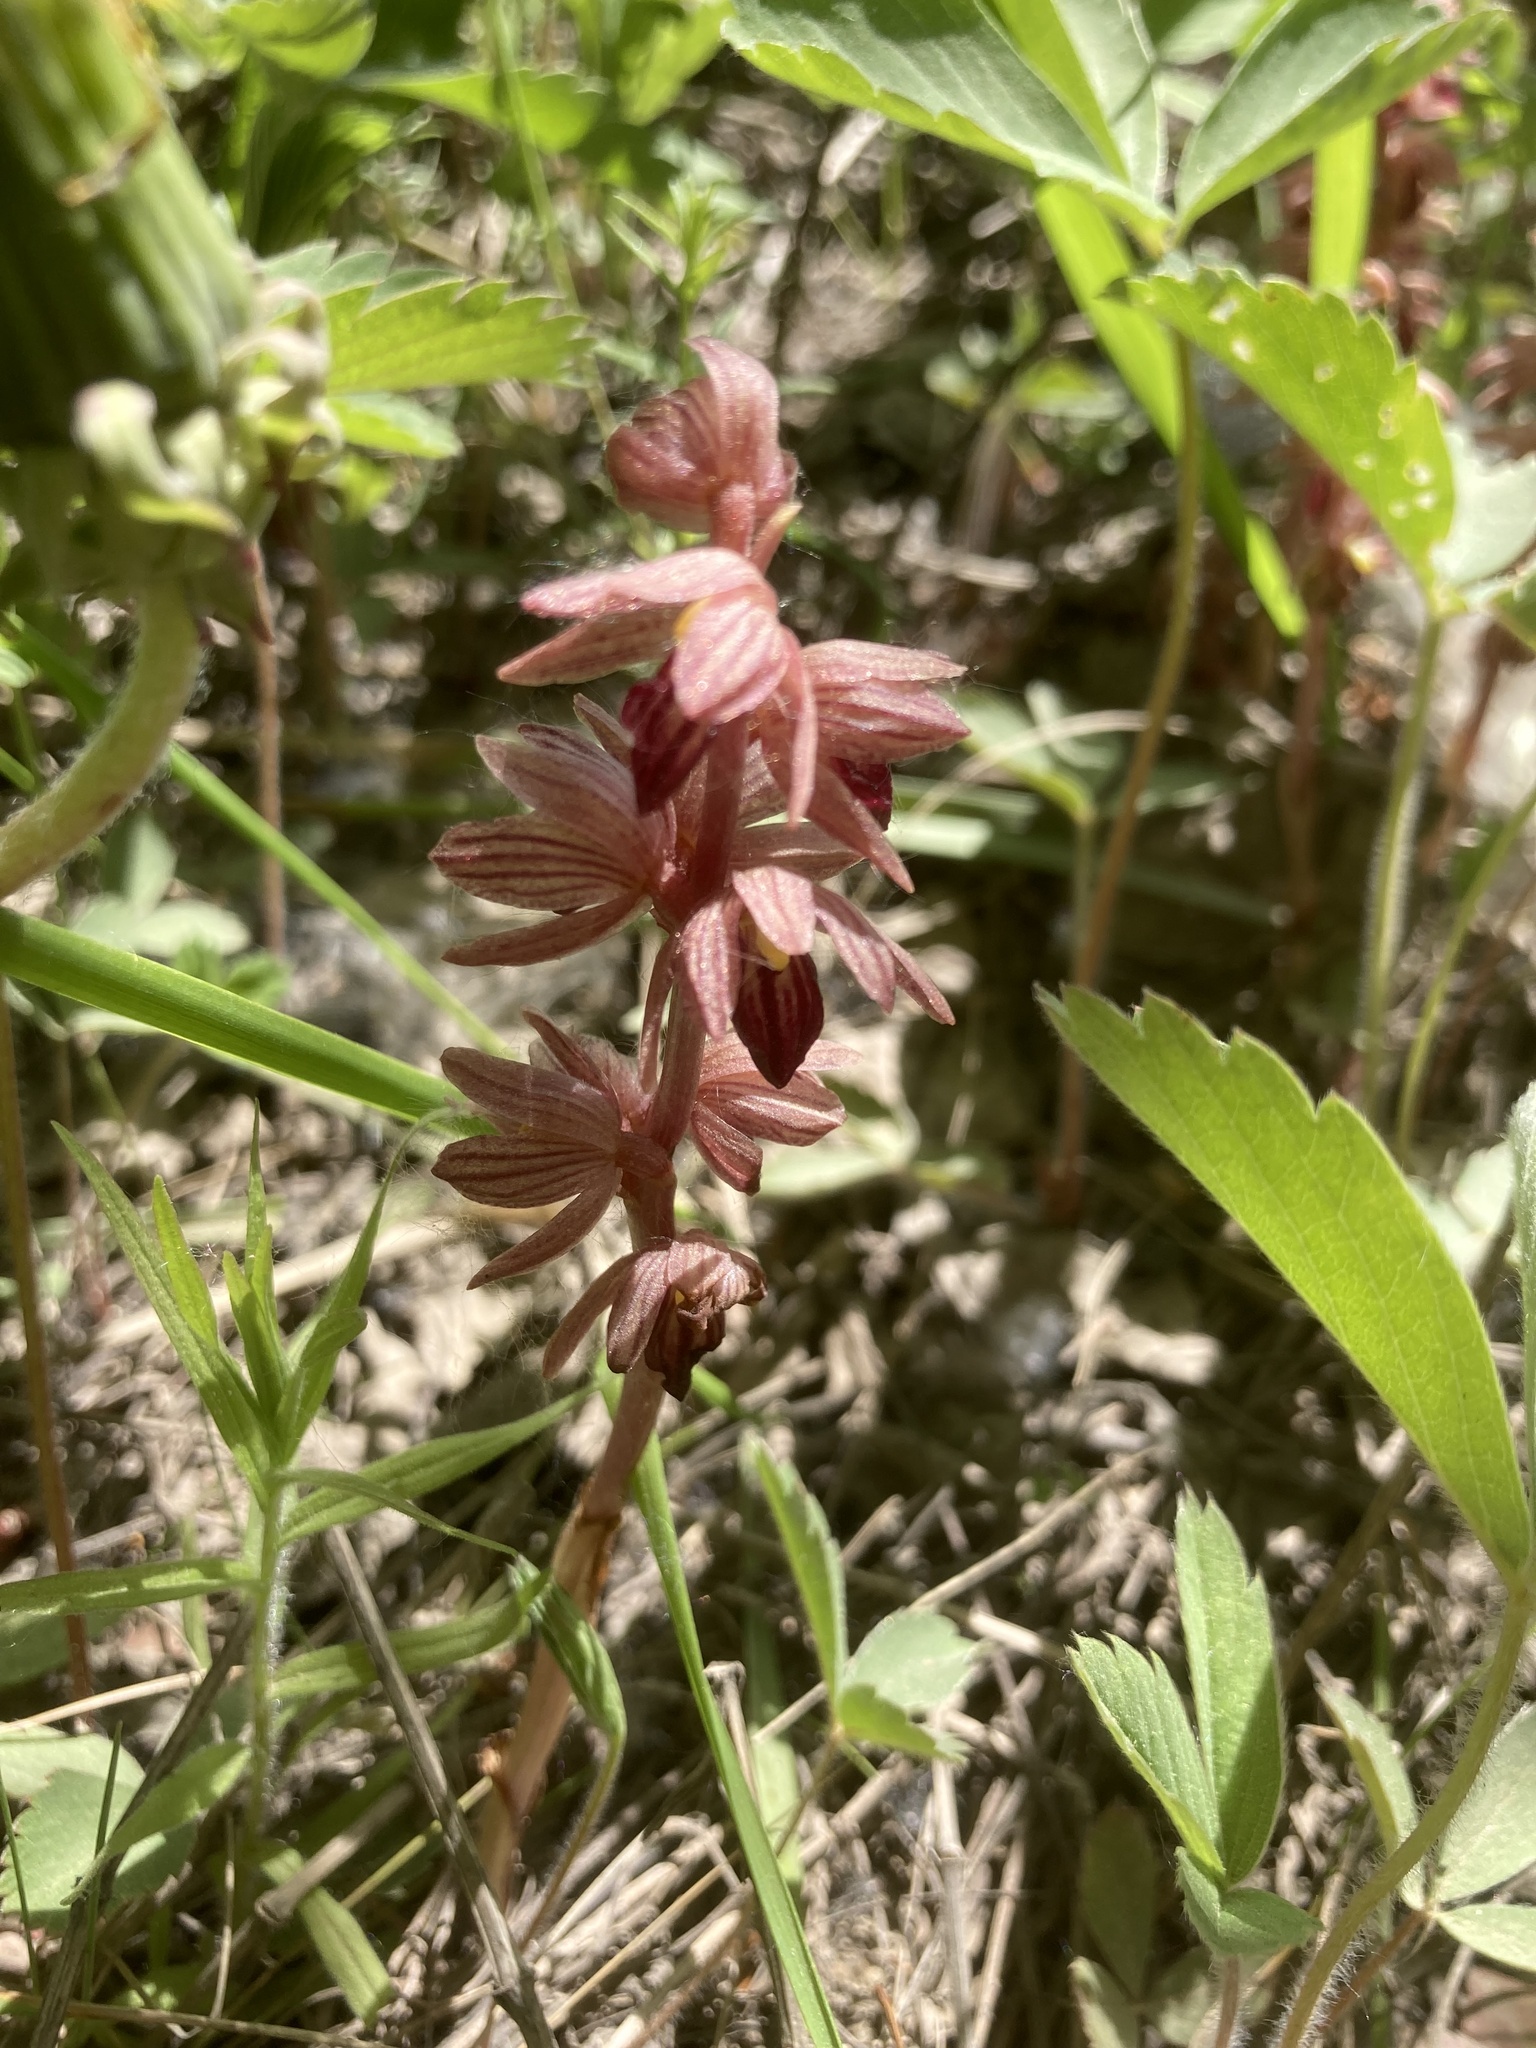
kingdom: Plantae
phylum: Tracheophyta
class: Liliopsida
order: Asparagales
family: Orchidaceae
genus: Corallorhiza
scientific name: Corallorhiza striata
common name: Hooded coralroot
